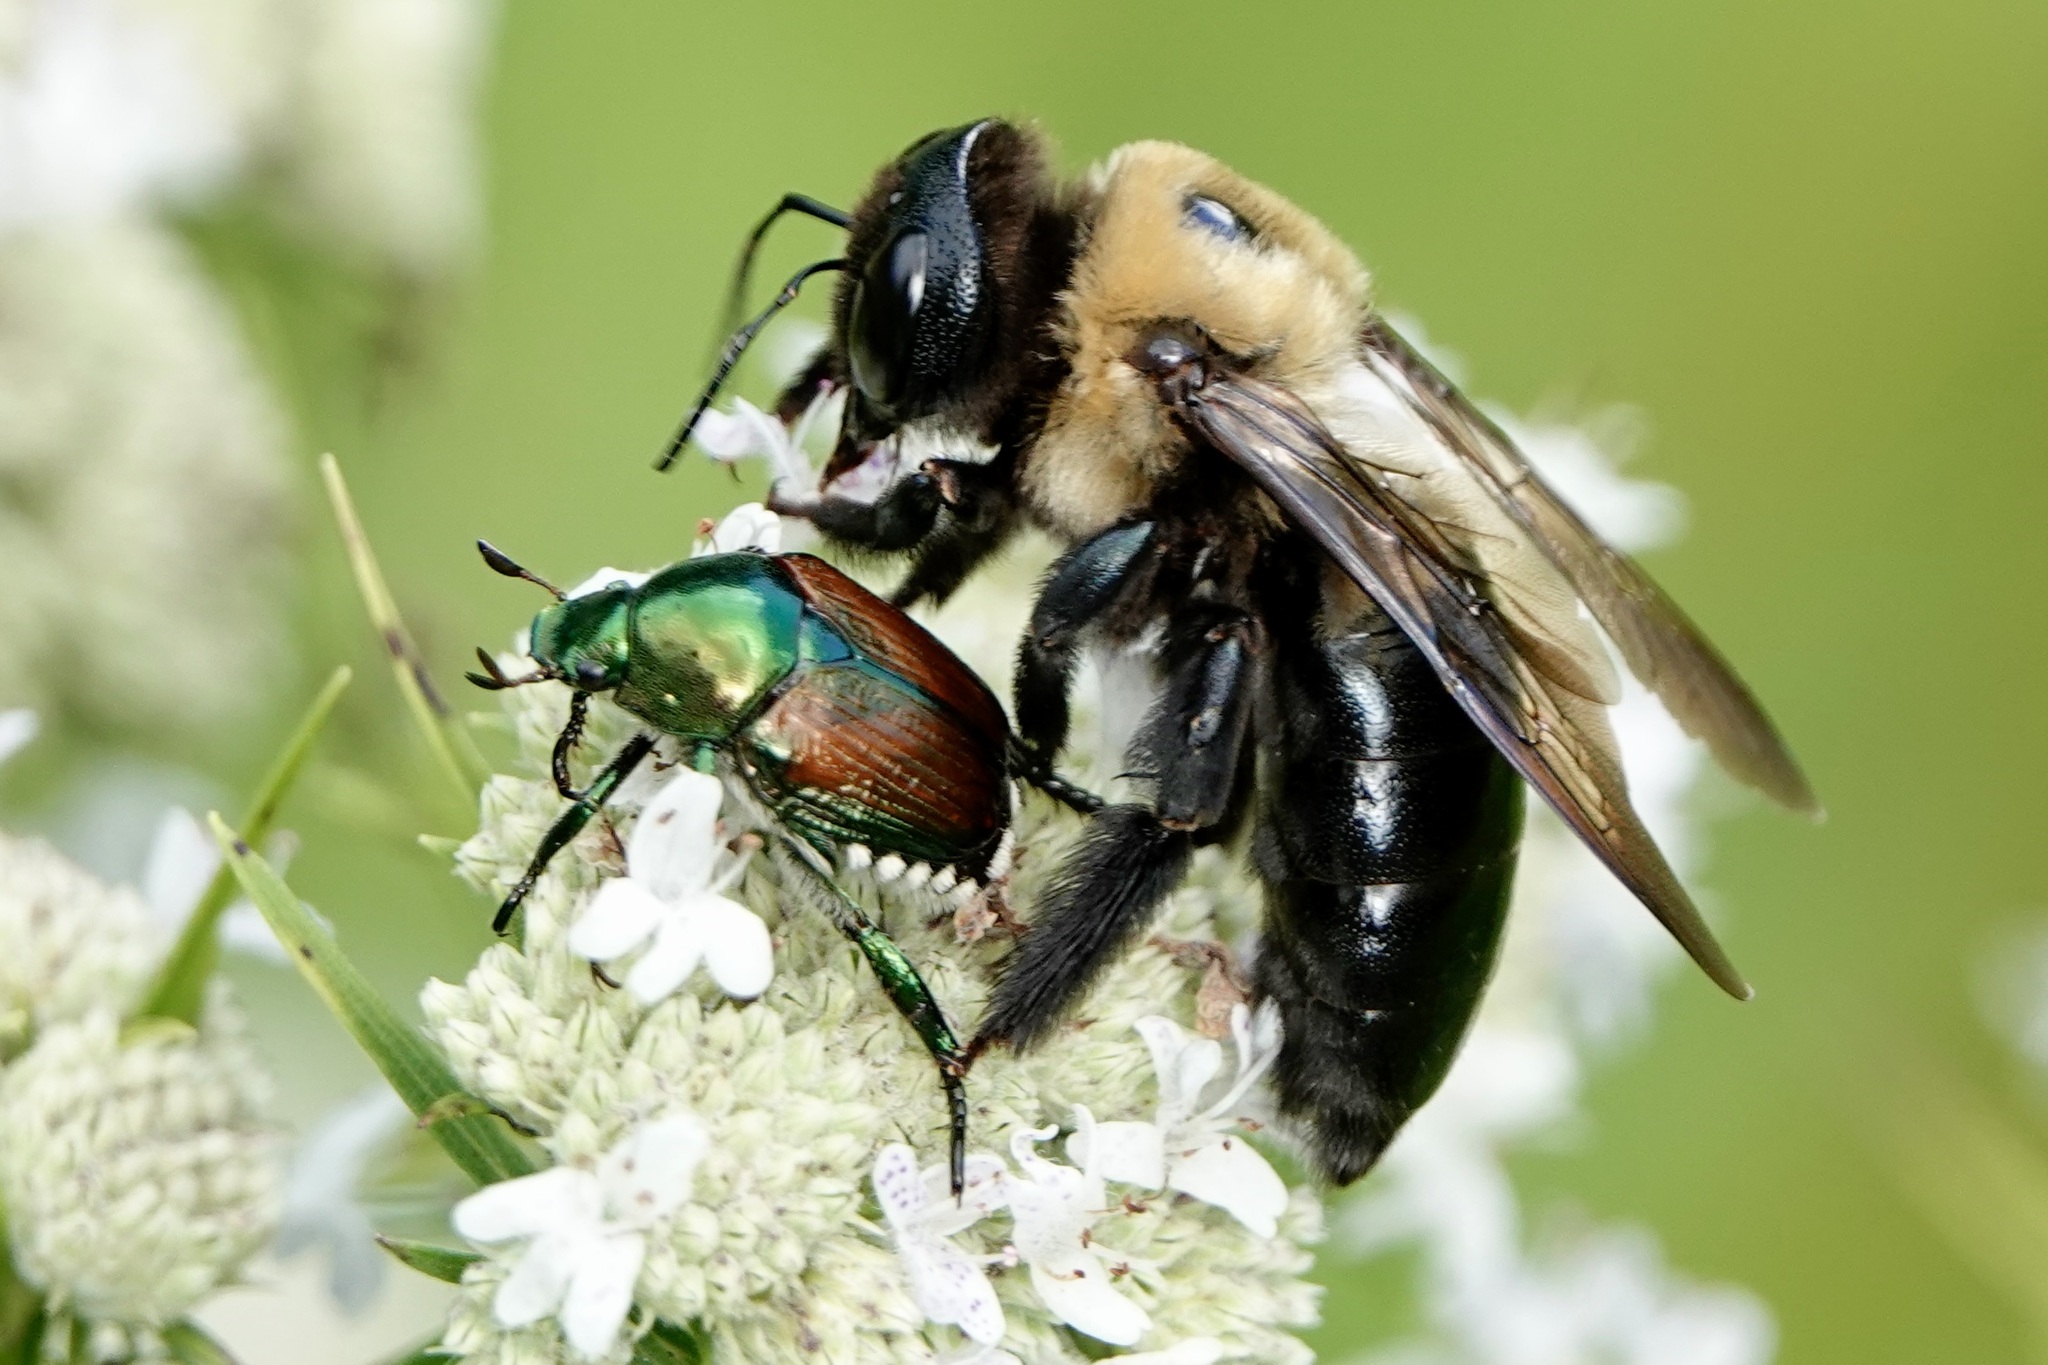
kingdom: Animalia
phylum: Arthropoda
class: Insecta
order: Hymenoptera
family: Apidae
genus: Xylocopa
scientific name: Xylocopa virginica
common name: Carpenter bee
